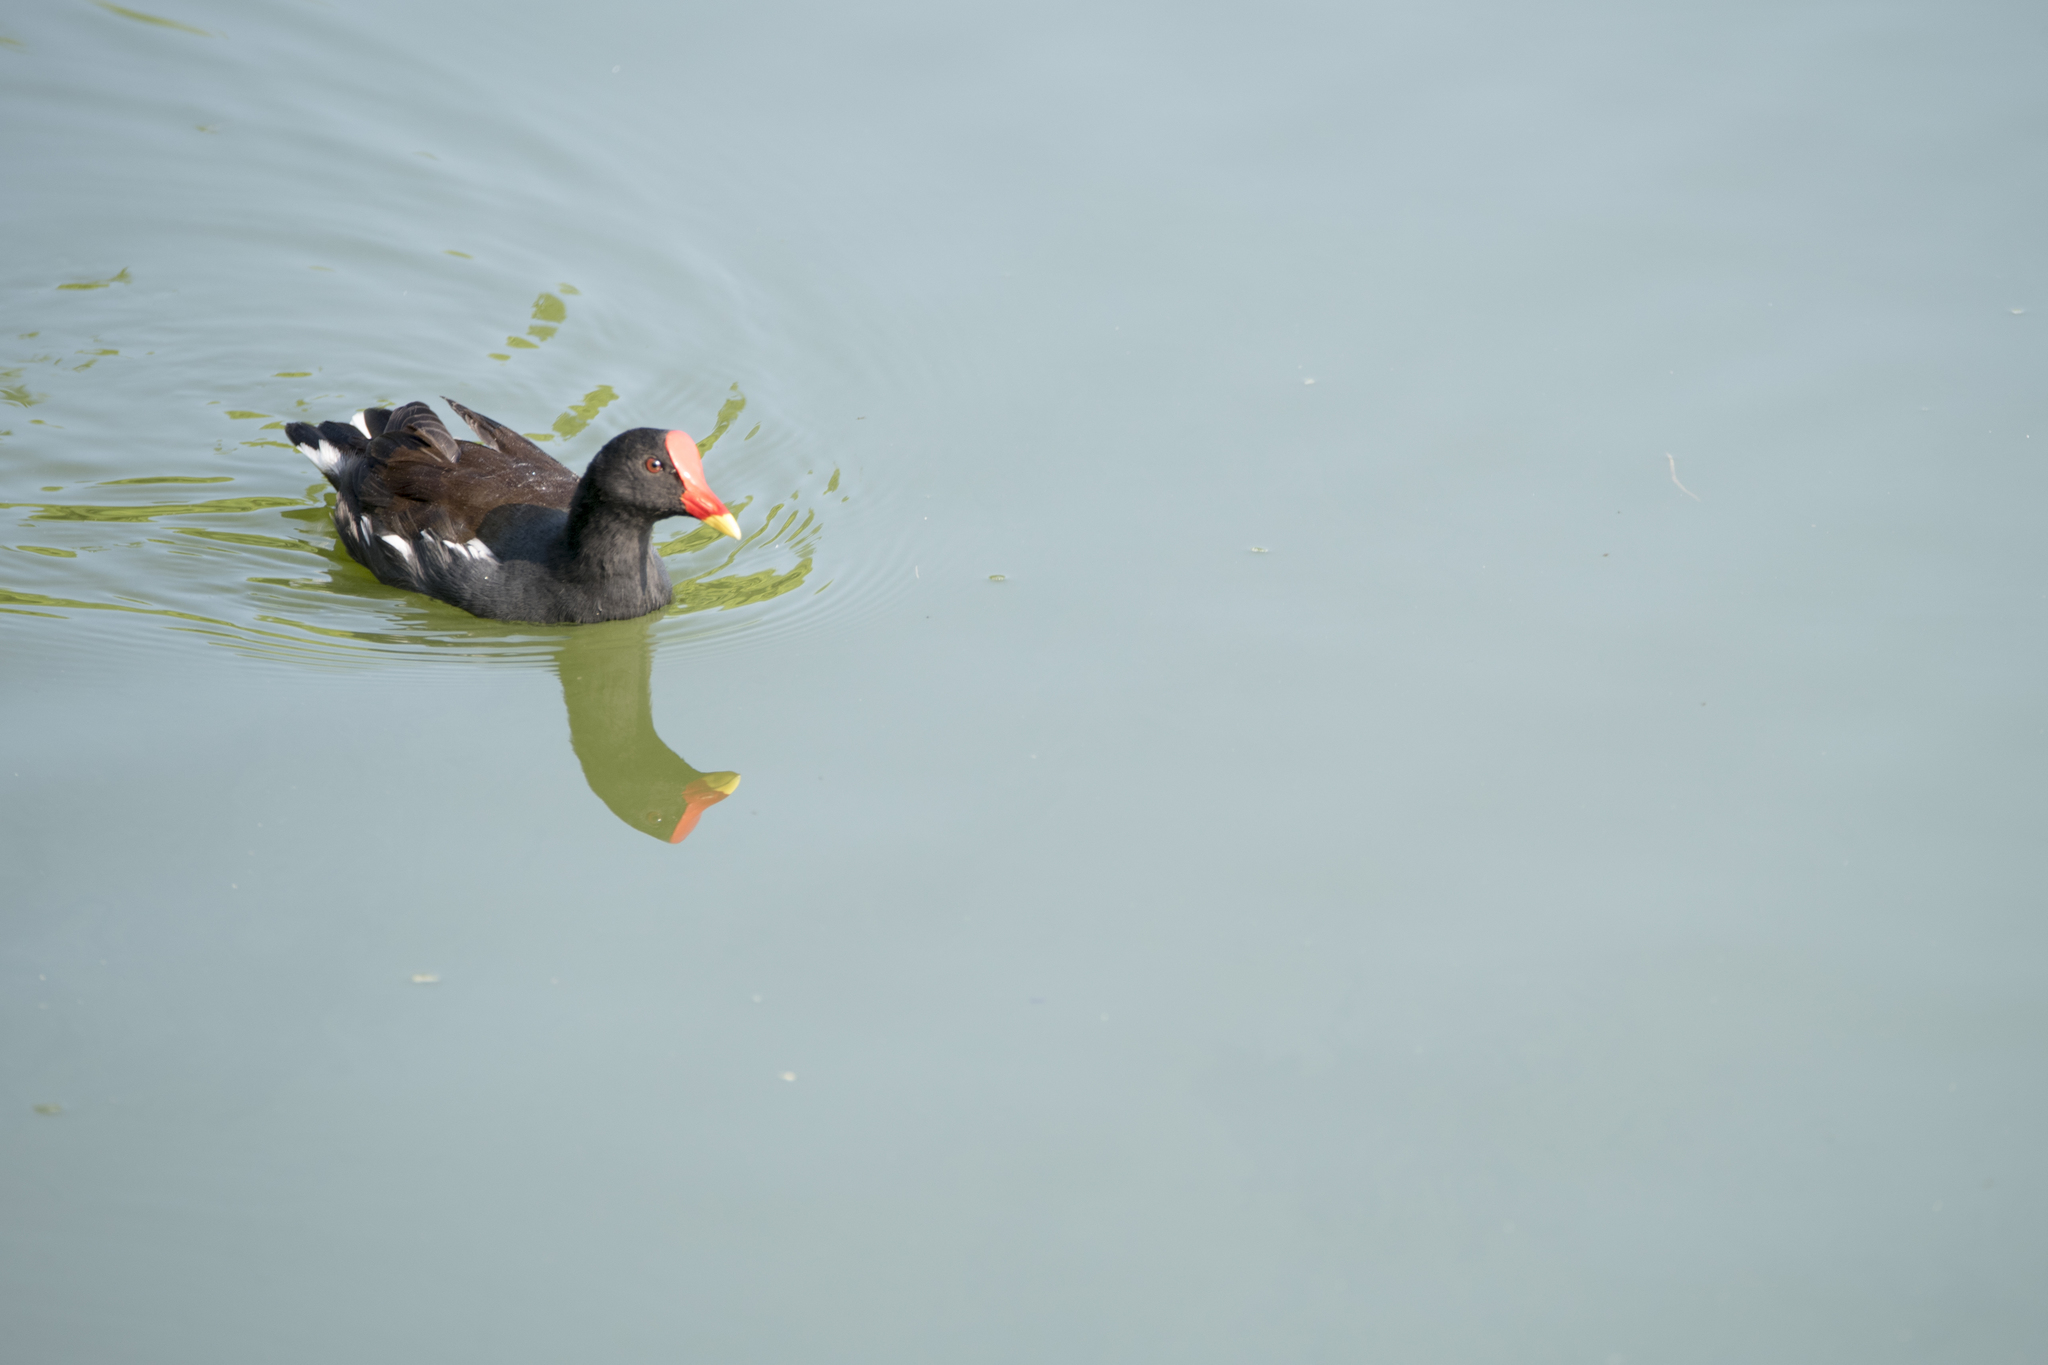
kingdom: Animalia
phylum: Chordata
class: Aves
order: Gruiformes
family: Rallidae
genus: Gallinula
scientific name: Gallinula chloropus
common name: Common moorhen
